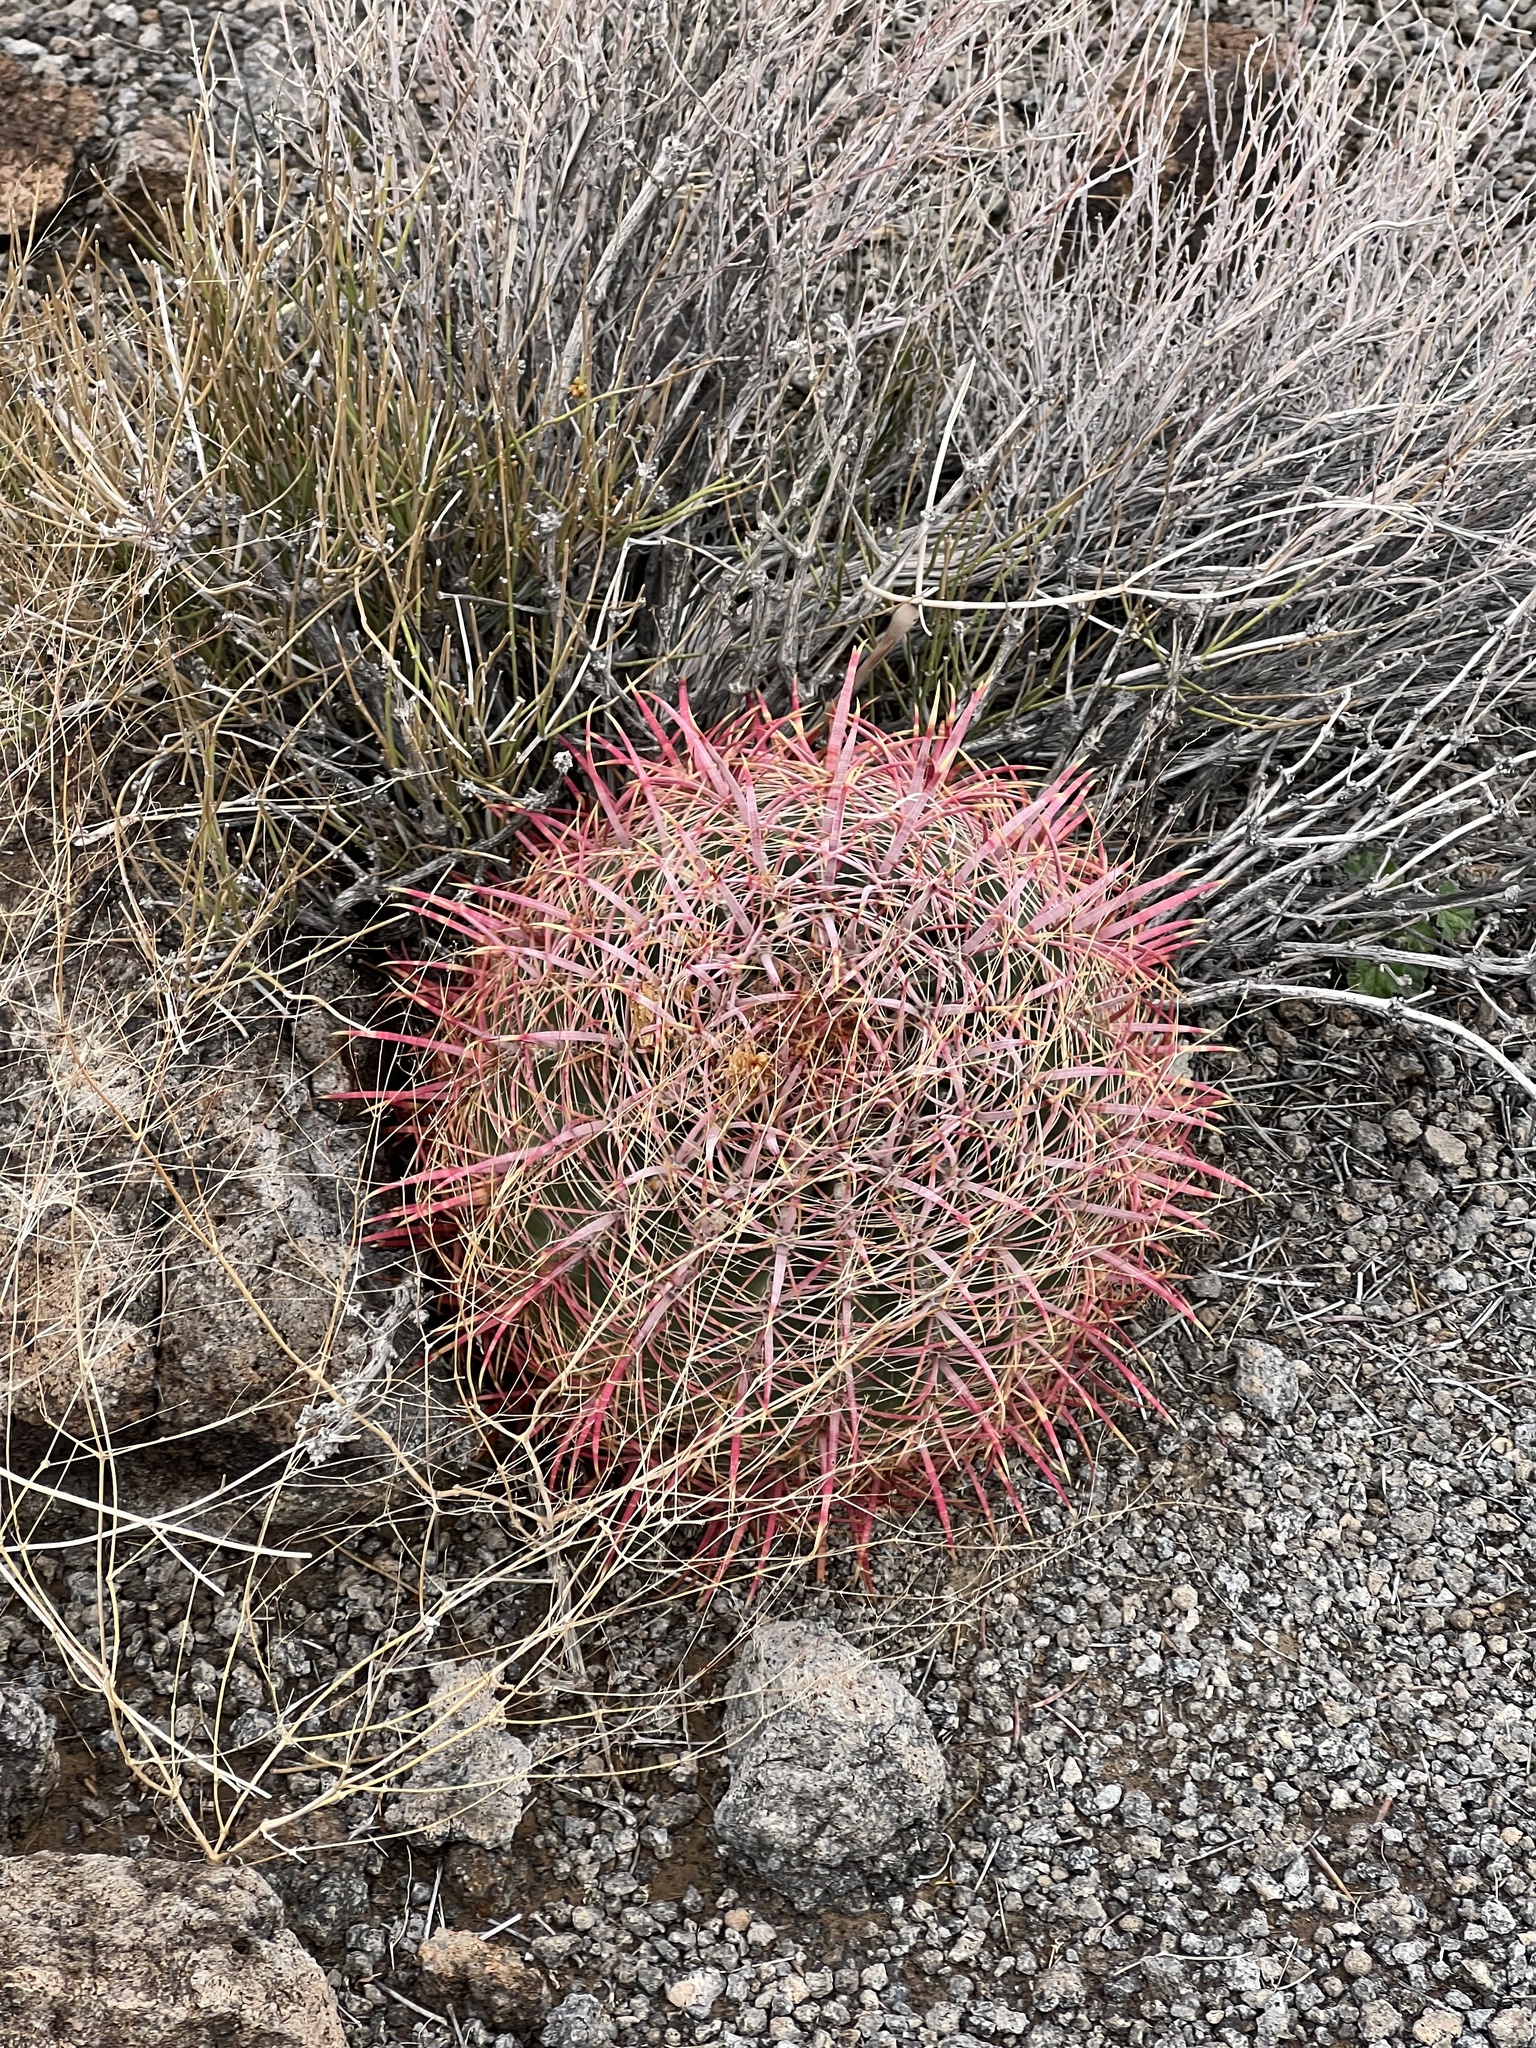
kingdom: Plantae
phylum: Tracheophyta
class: Magnoliopsida
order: Caryophyllales
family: Cactaceae
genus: Ferocactus
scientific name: Ferocactus cylindraceus
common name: California barrel cactus
